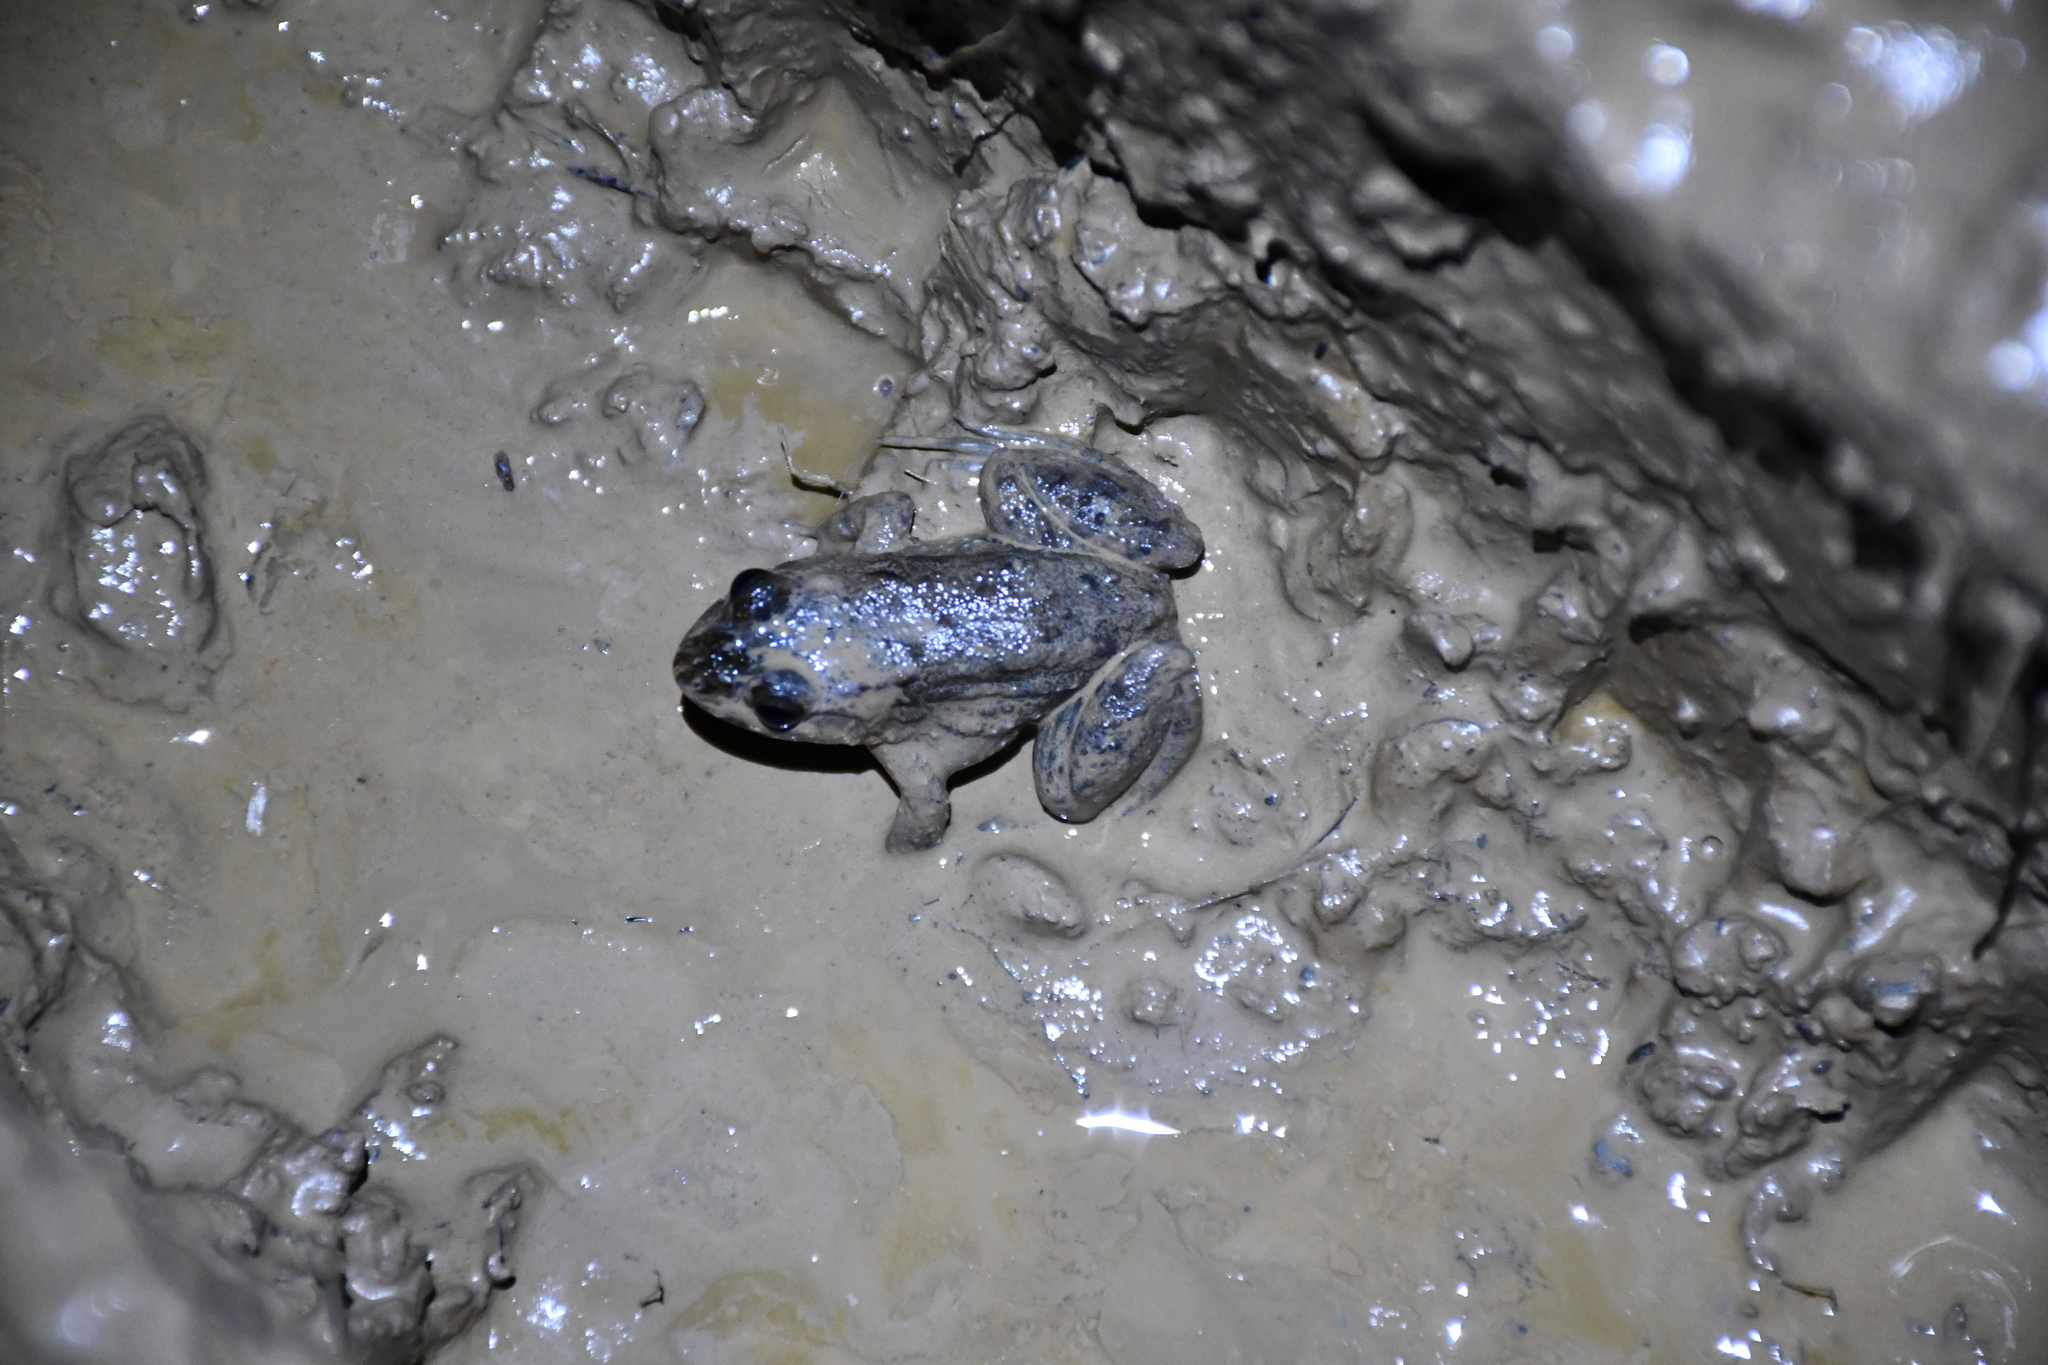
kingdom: Animalia
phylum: Chordata
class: Amphibia
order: Anura
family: Leptodactylidae
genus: Leptodactylus
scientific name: Leptodactylus petersii
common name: Peters' thin-toed frog
